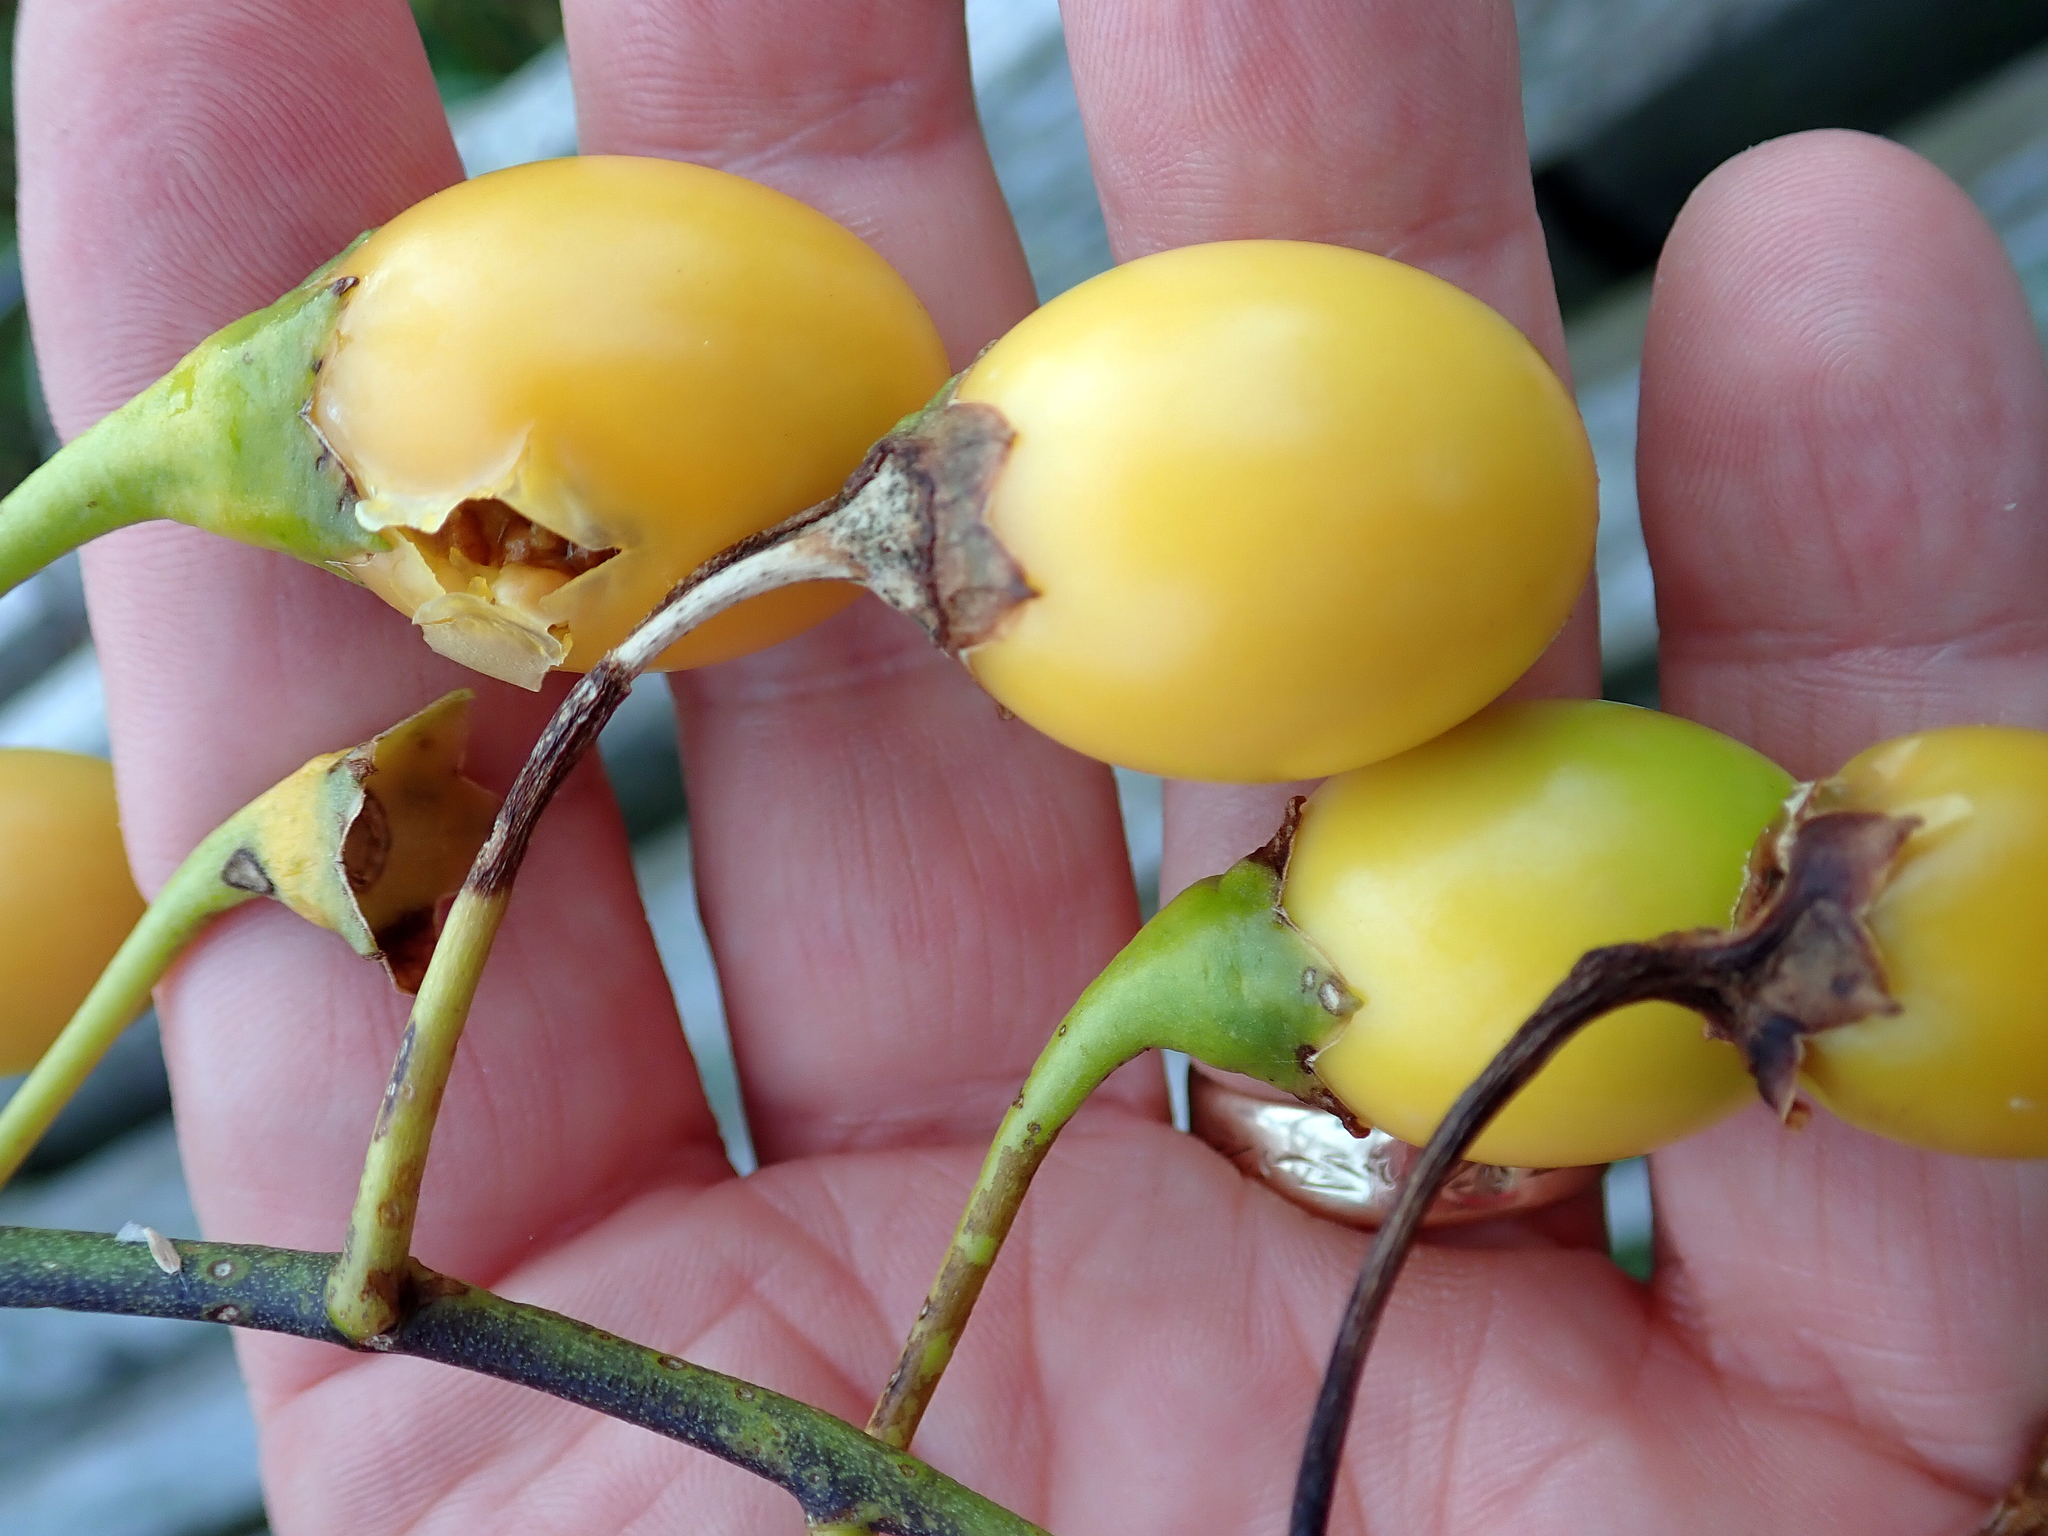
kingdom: Plantae
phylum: Tracheophyta
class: Magnoliopsida
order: Solanales
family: Solanaceae
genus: Solanum
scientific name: Solanum laciniatum
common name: Kangaroo-apple
